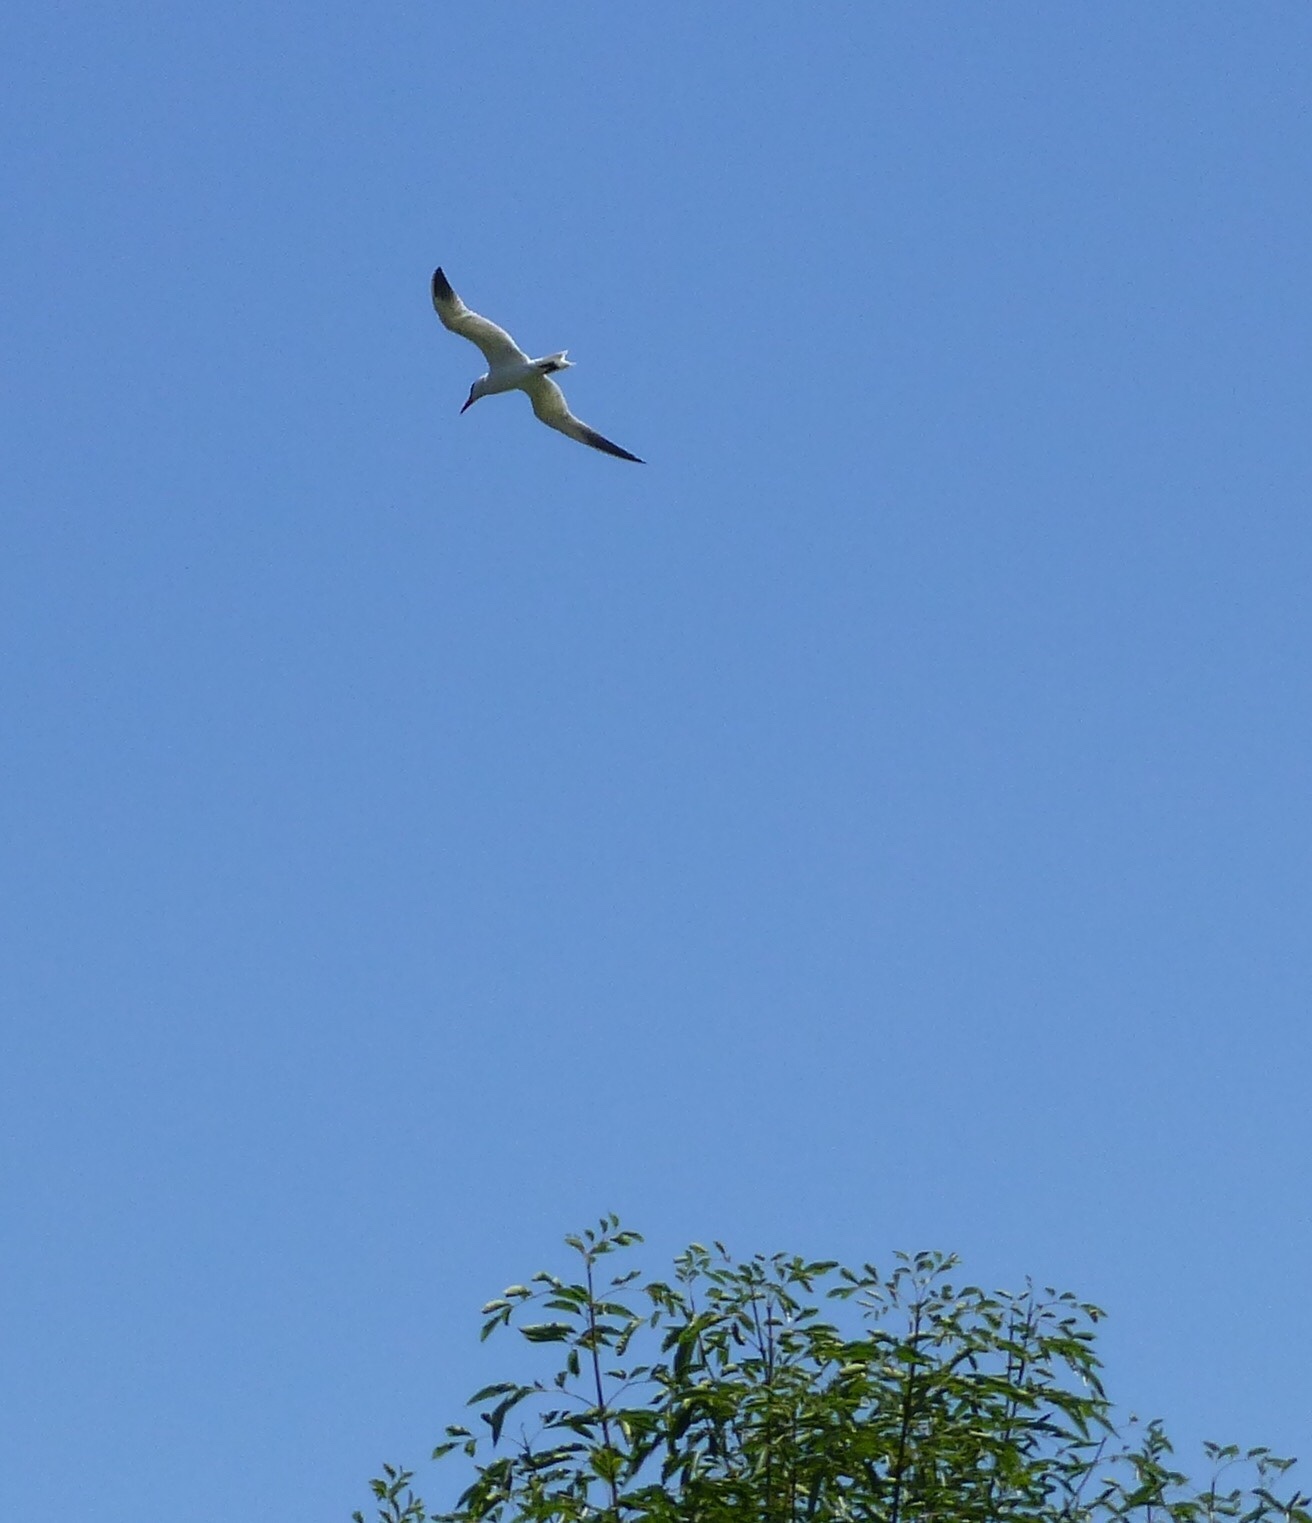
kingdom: Animalia
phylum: Chordata
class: Aves
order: Charadriiformes
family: Laridae
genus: Hydroprogne
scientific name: Hydroprogne caspia
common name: Caspian tern
